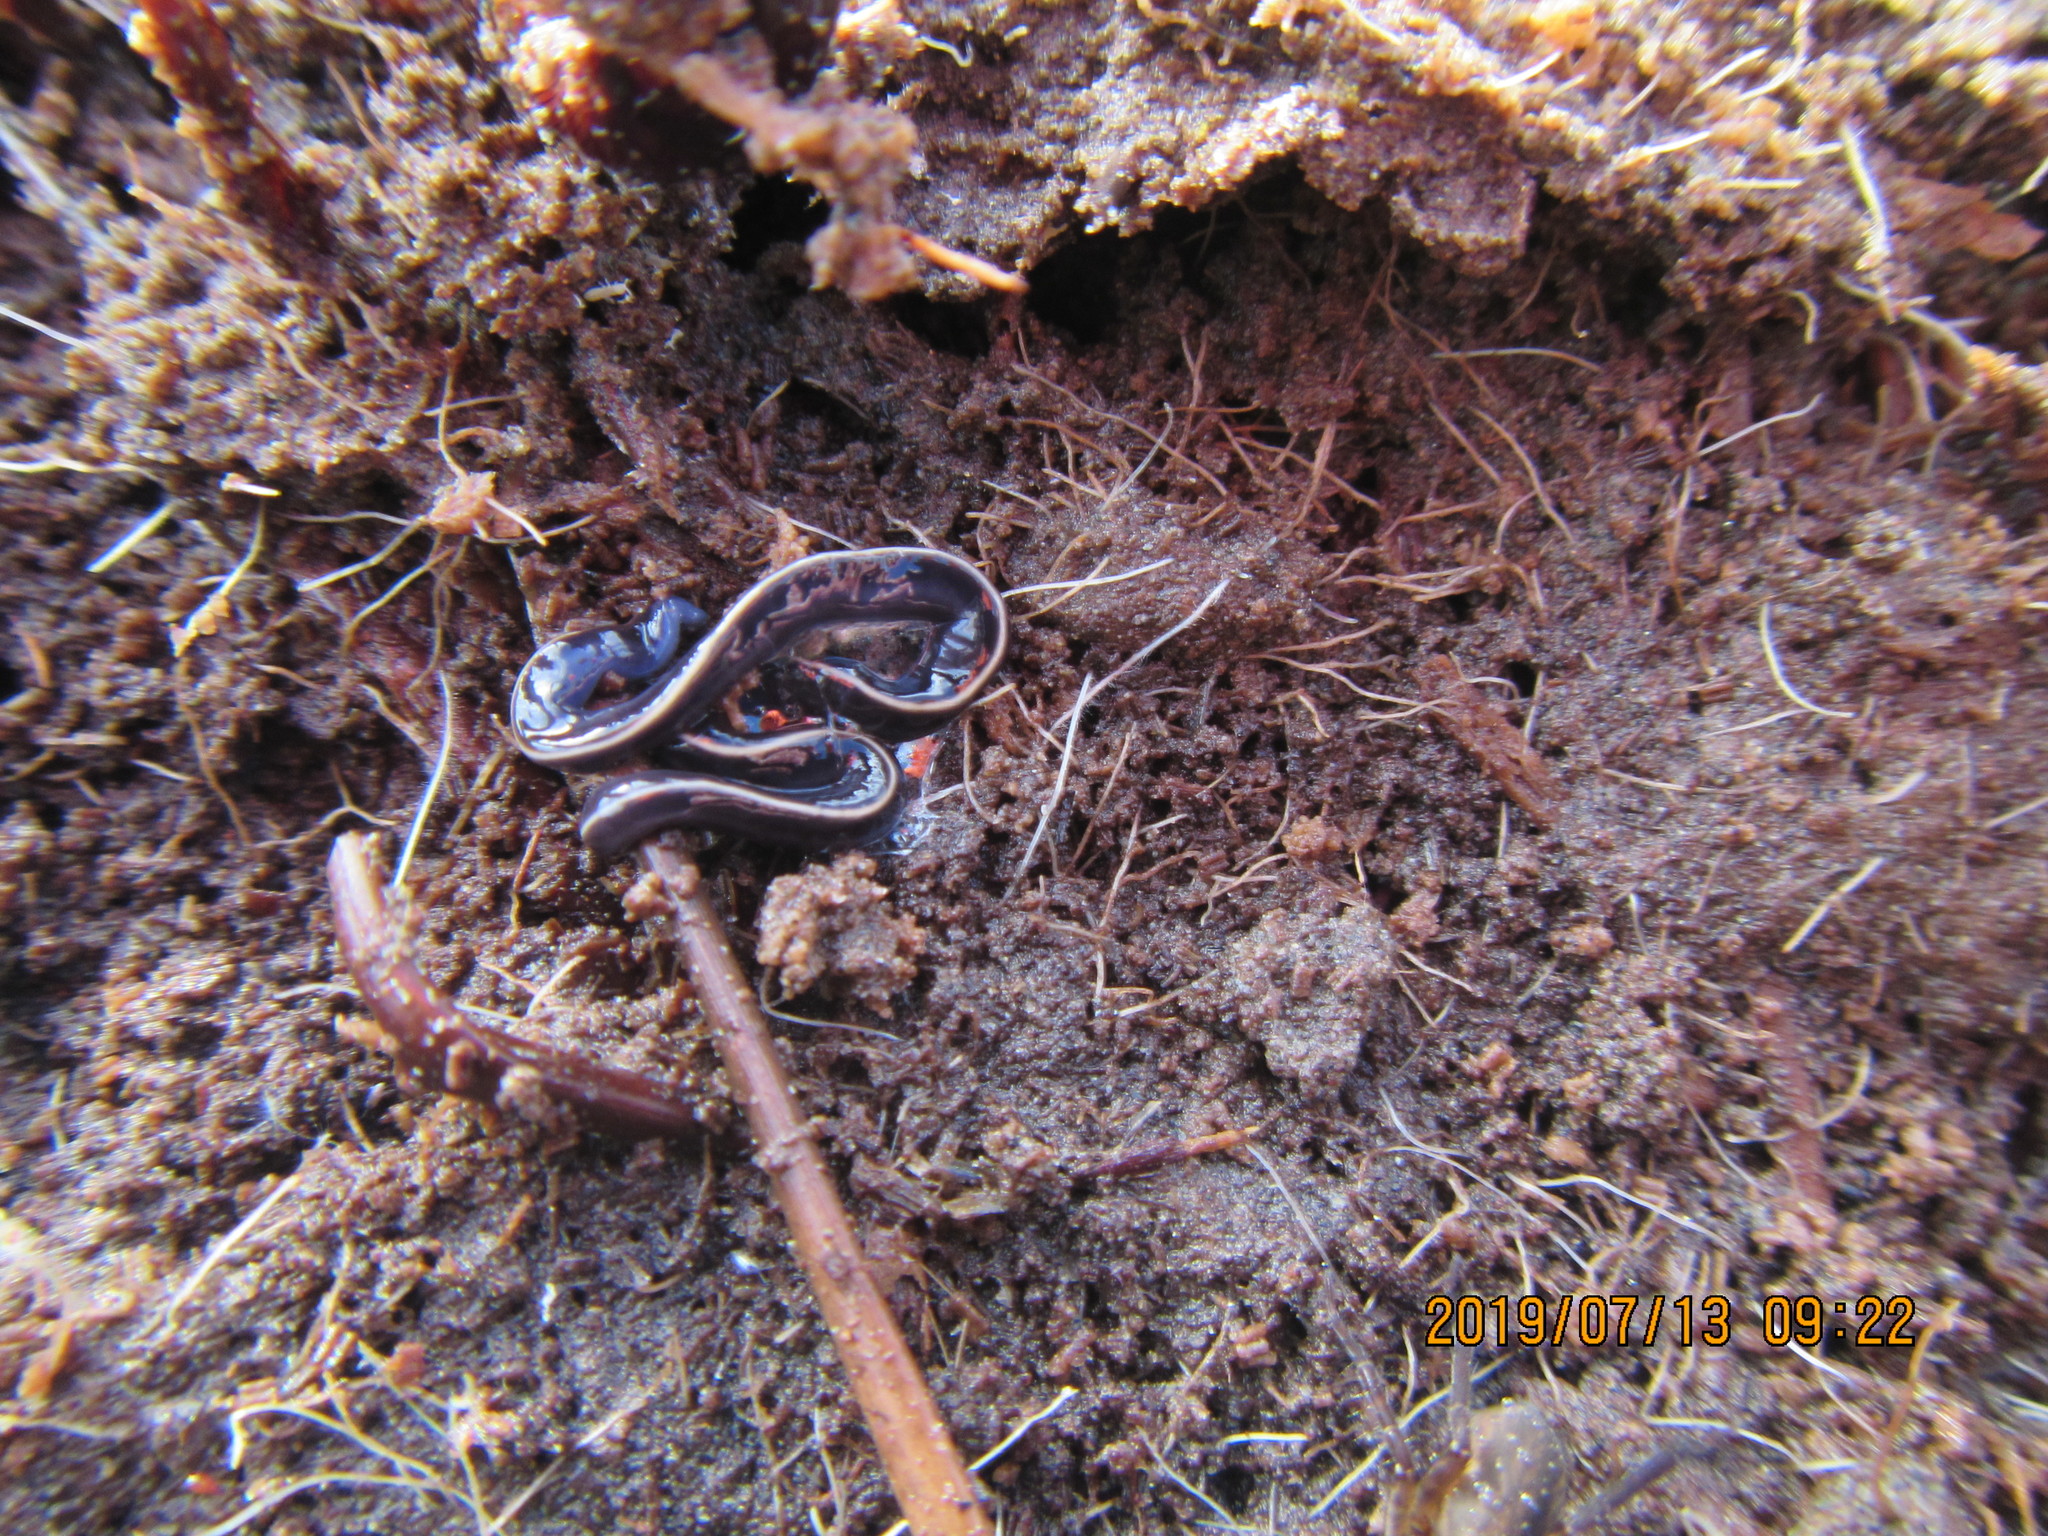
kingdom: Animalia
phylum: Platyhelminthes
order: Tricladida
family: Geoplanidae
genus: Caenoplana
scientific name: Caenoplana coerulea
